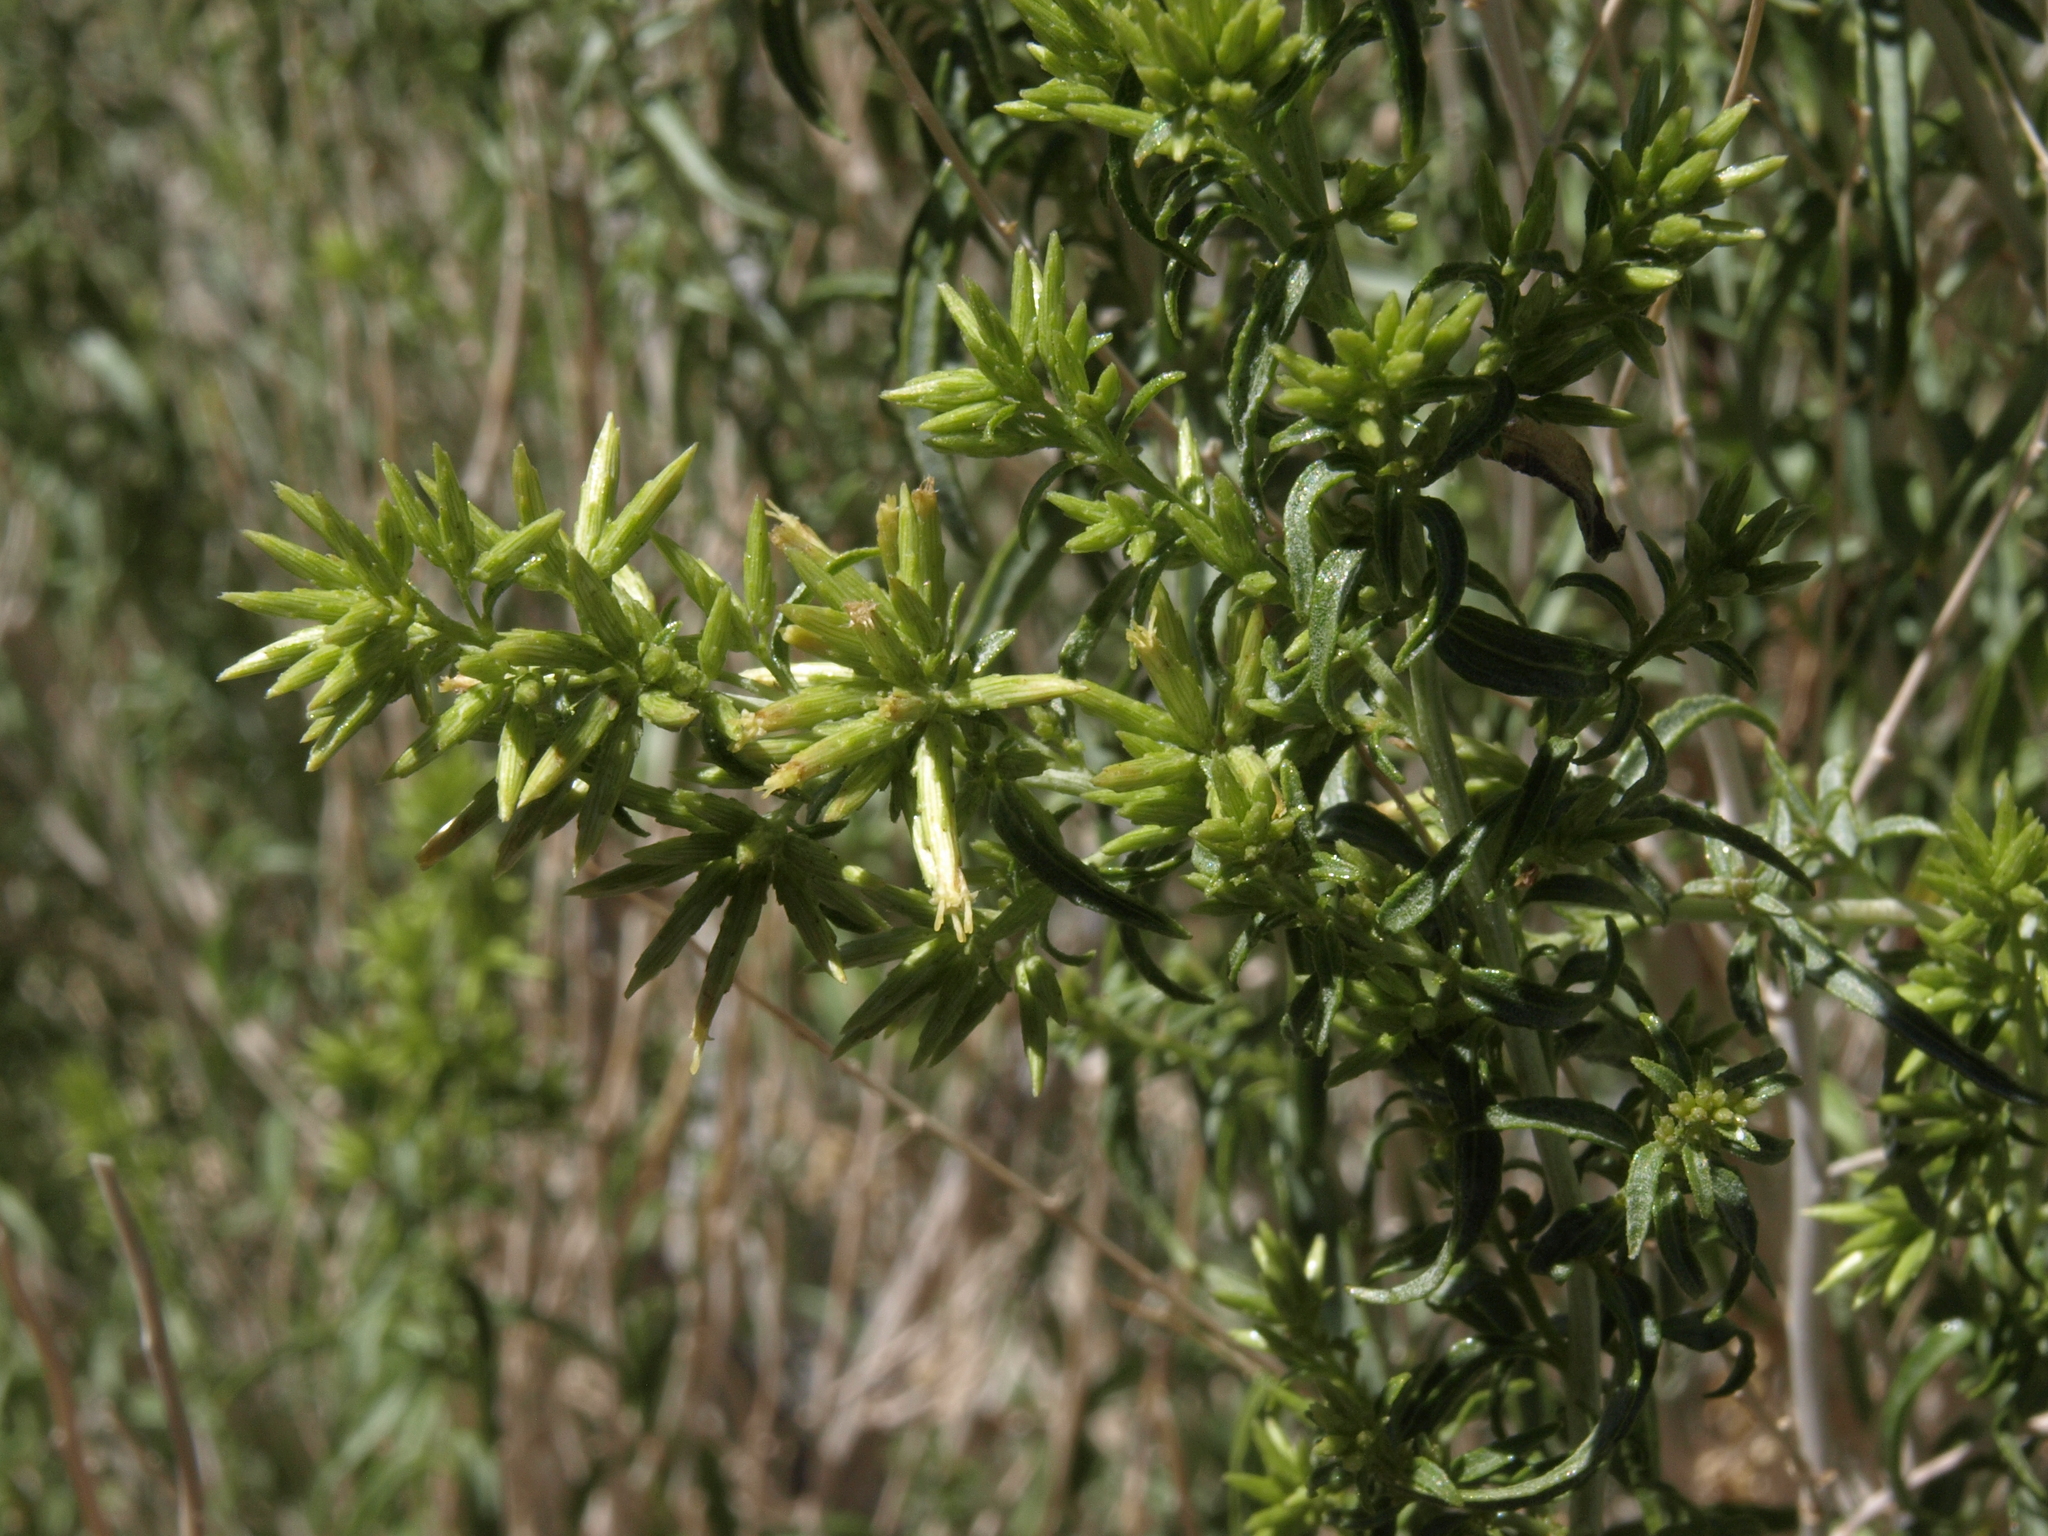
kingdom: Plantae
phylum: Tracheophyta
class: Magnoliopsida
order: Asterales
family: Asteraceae
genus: Brickellia
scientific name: Brickellia longifolia
